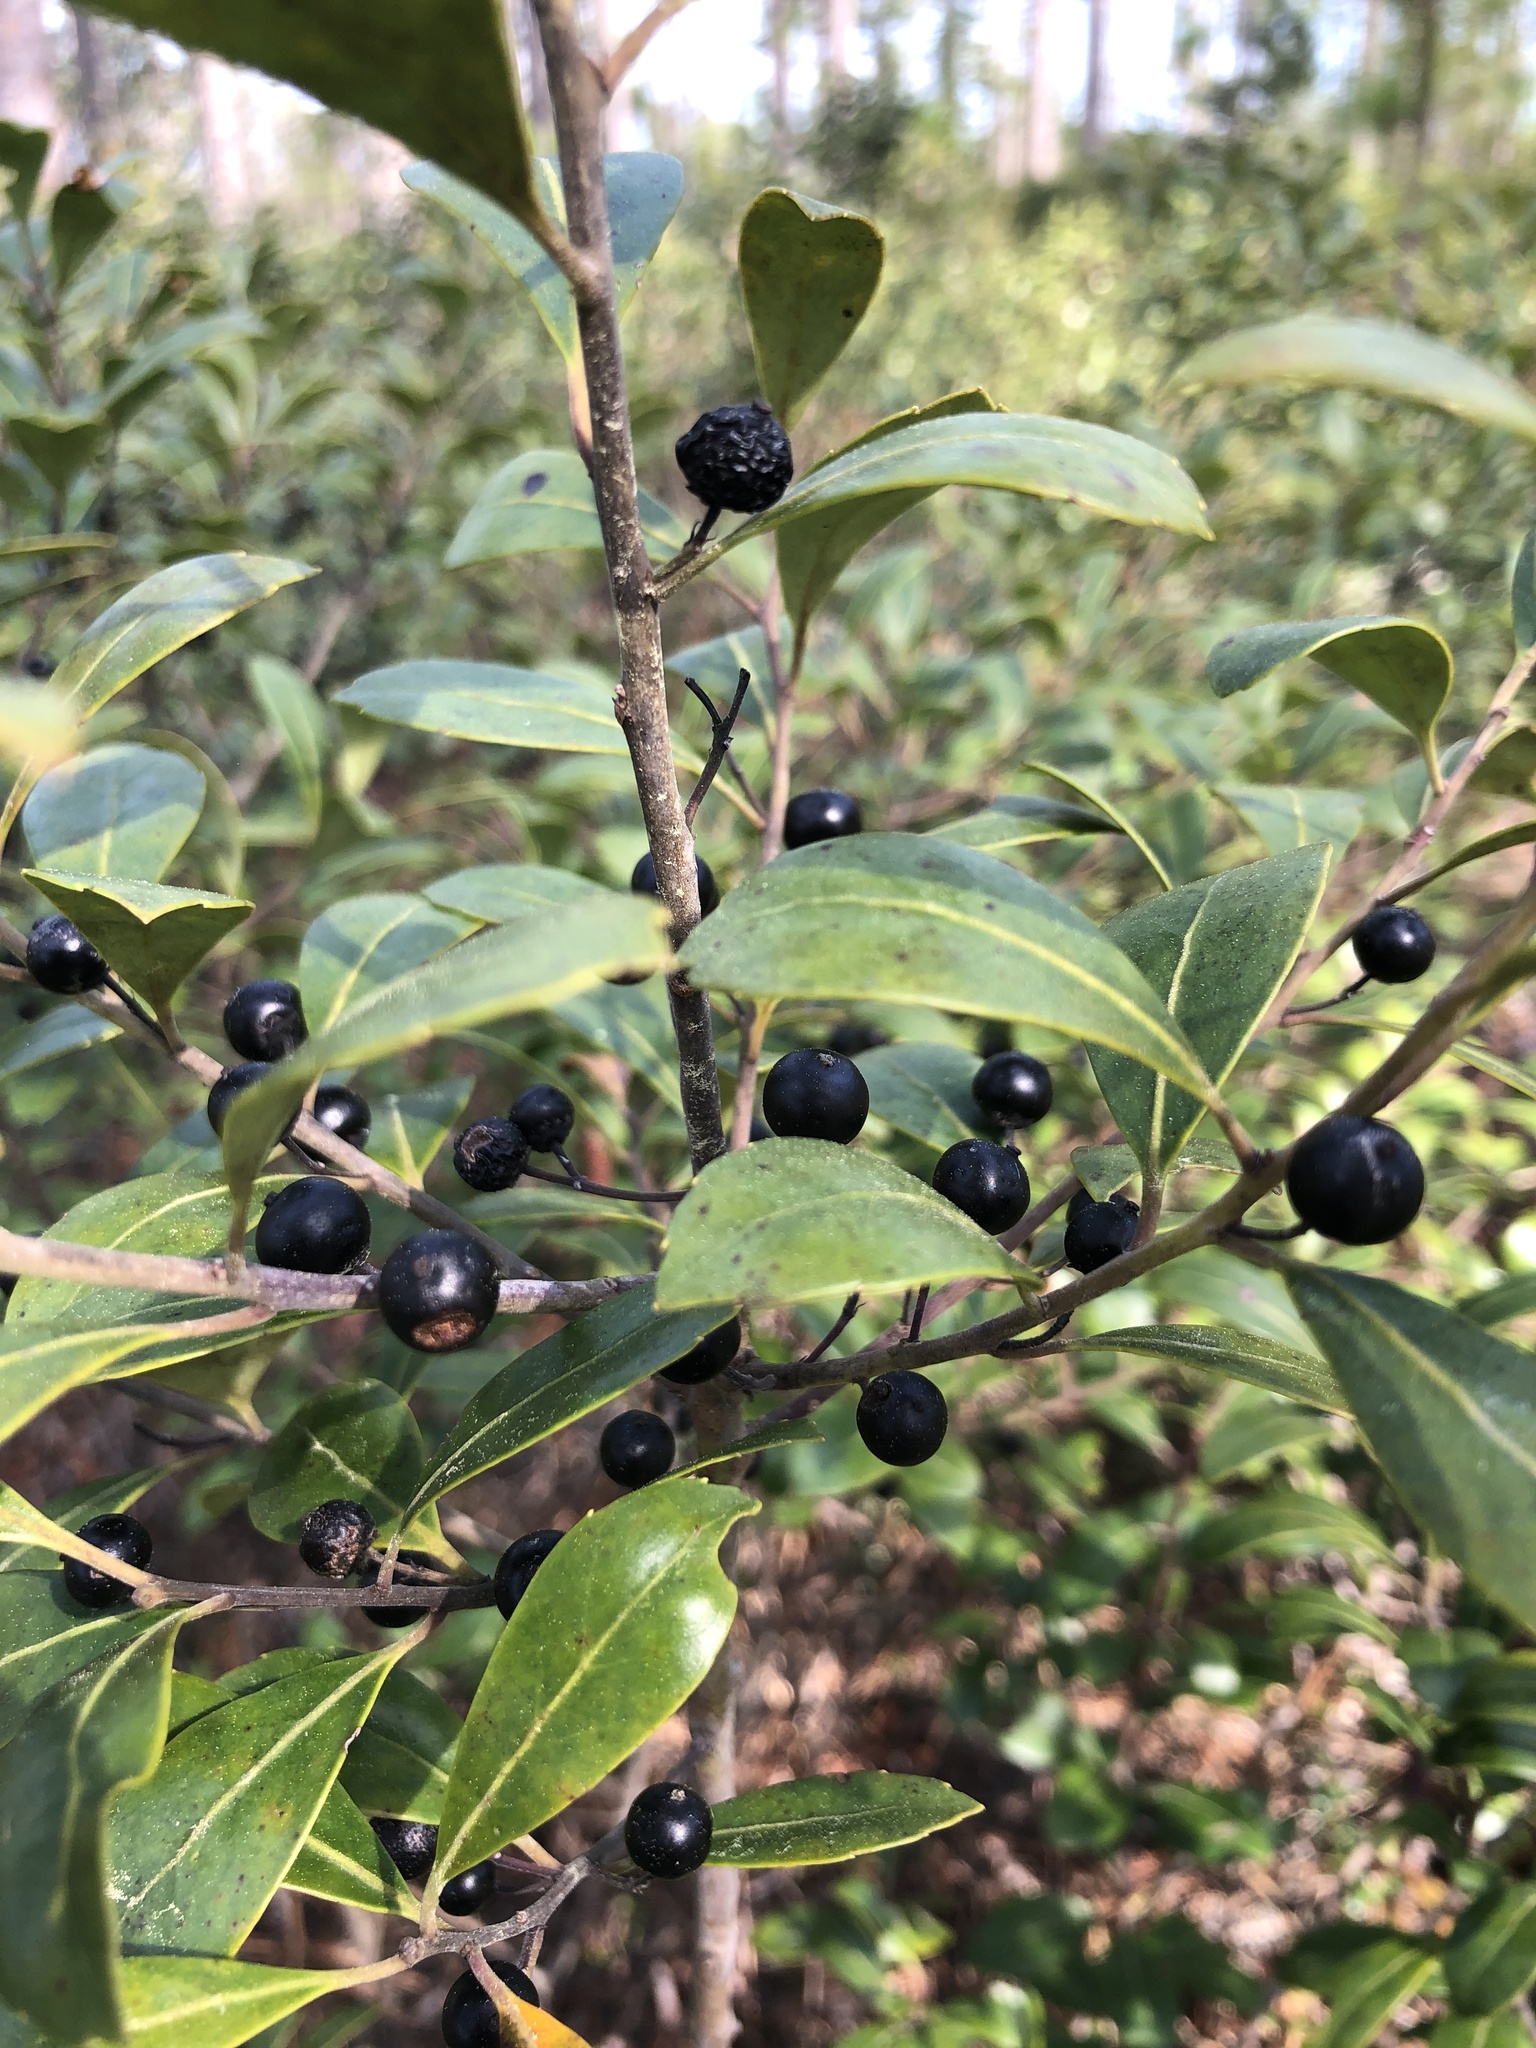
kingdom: Plantae
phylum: Tracheophyta
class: Magnoliopsida
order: Aquifoliales
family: Aquifoliaceae
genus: Ilex
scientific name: Ilex glabra
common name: Bitter gallberry
